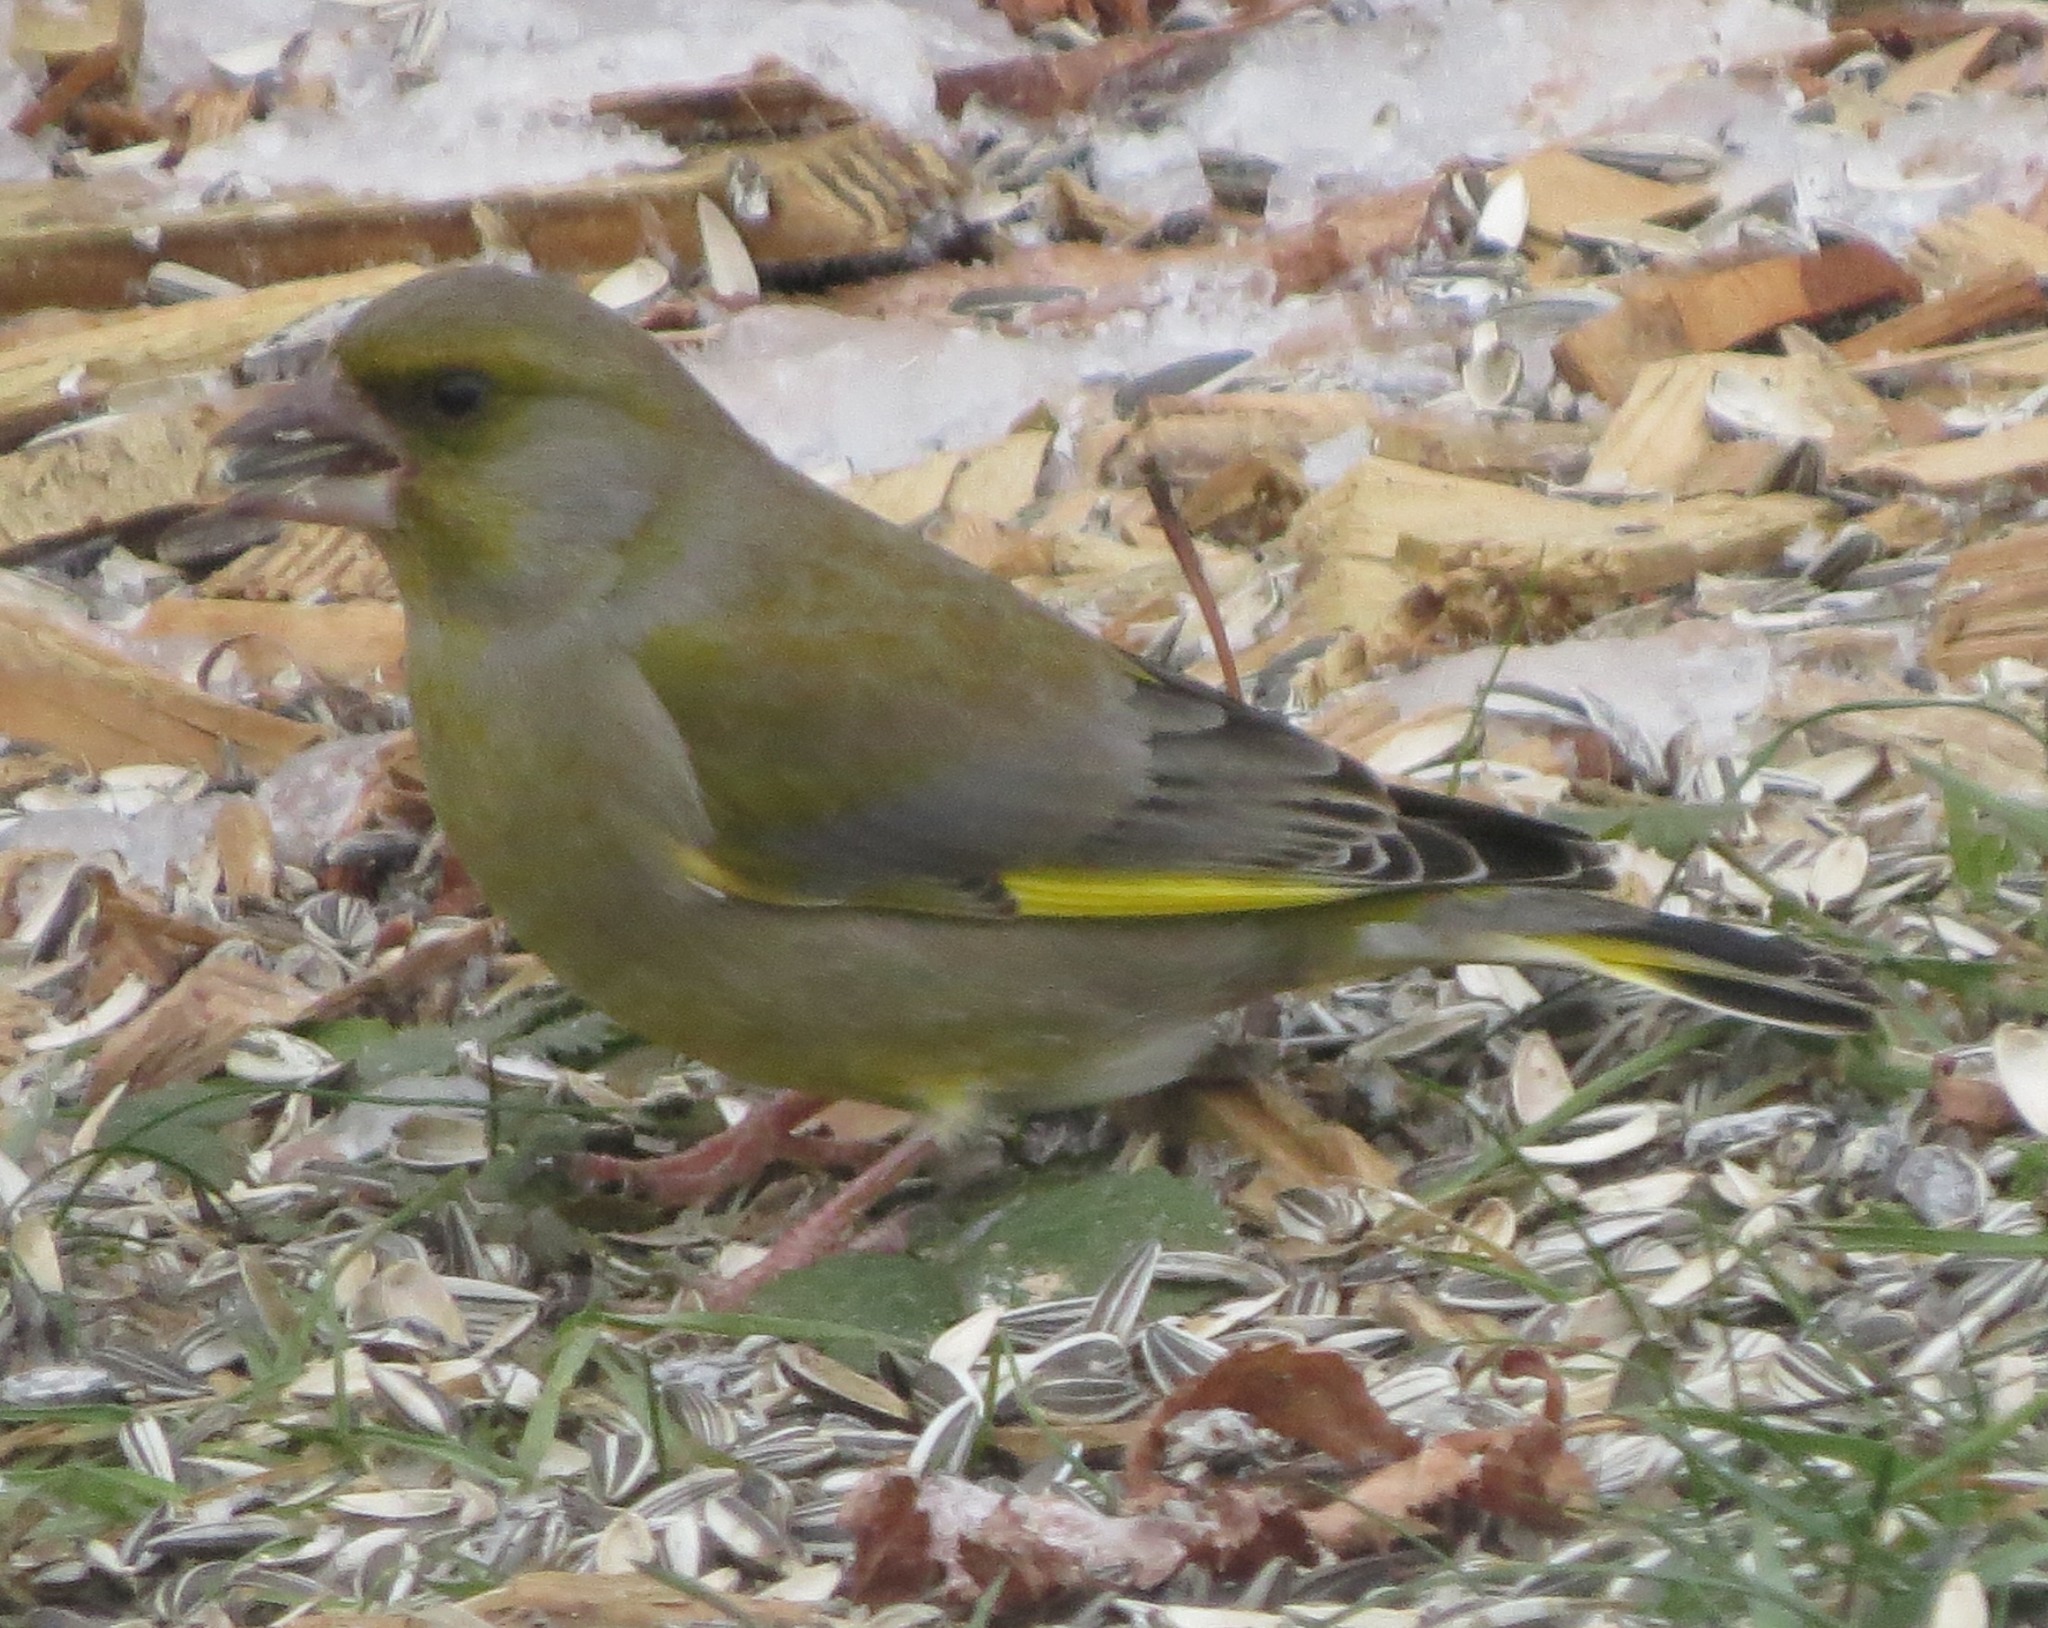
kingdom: Plantae
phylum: Tracheophyta
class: Liliopsida
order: Poales
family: Poaceae
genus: Chloris
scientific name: Chloris chloris
